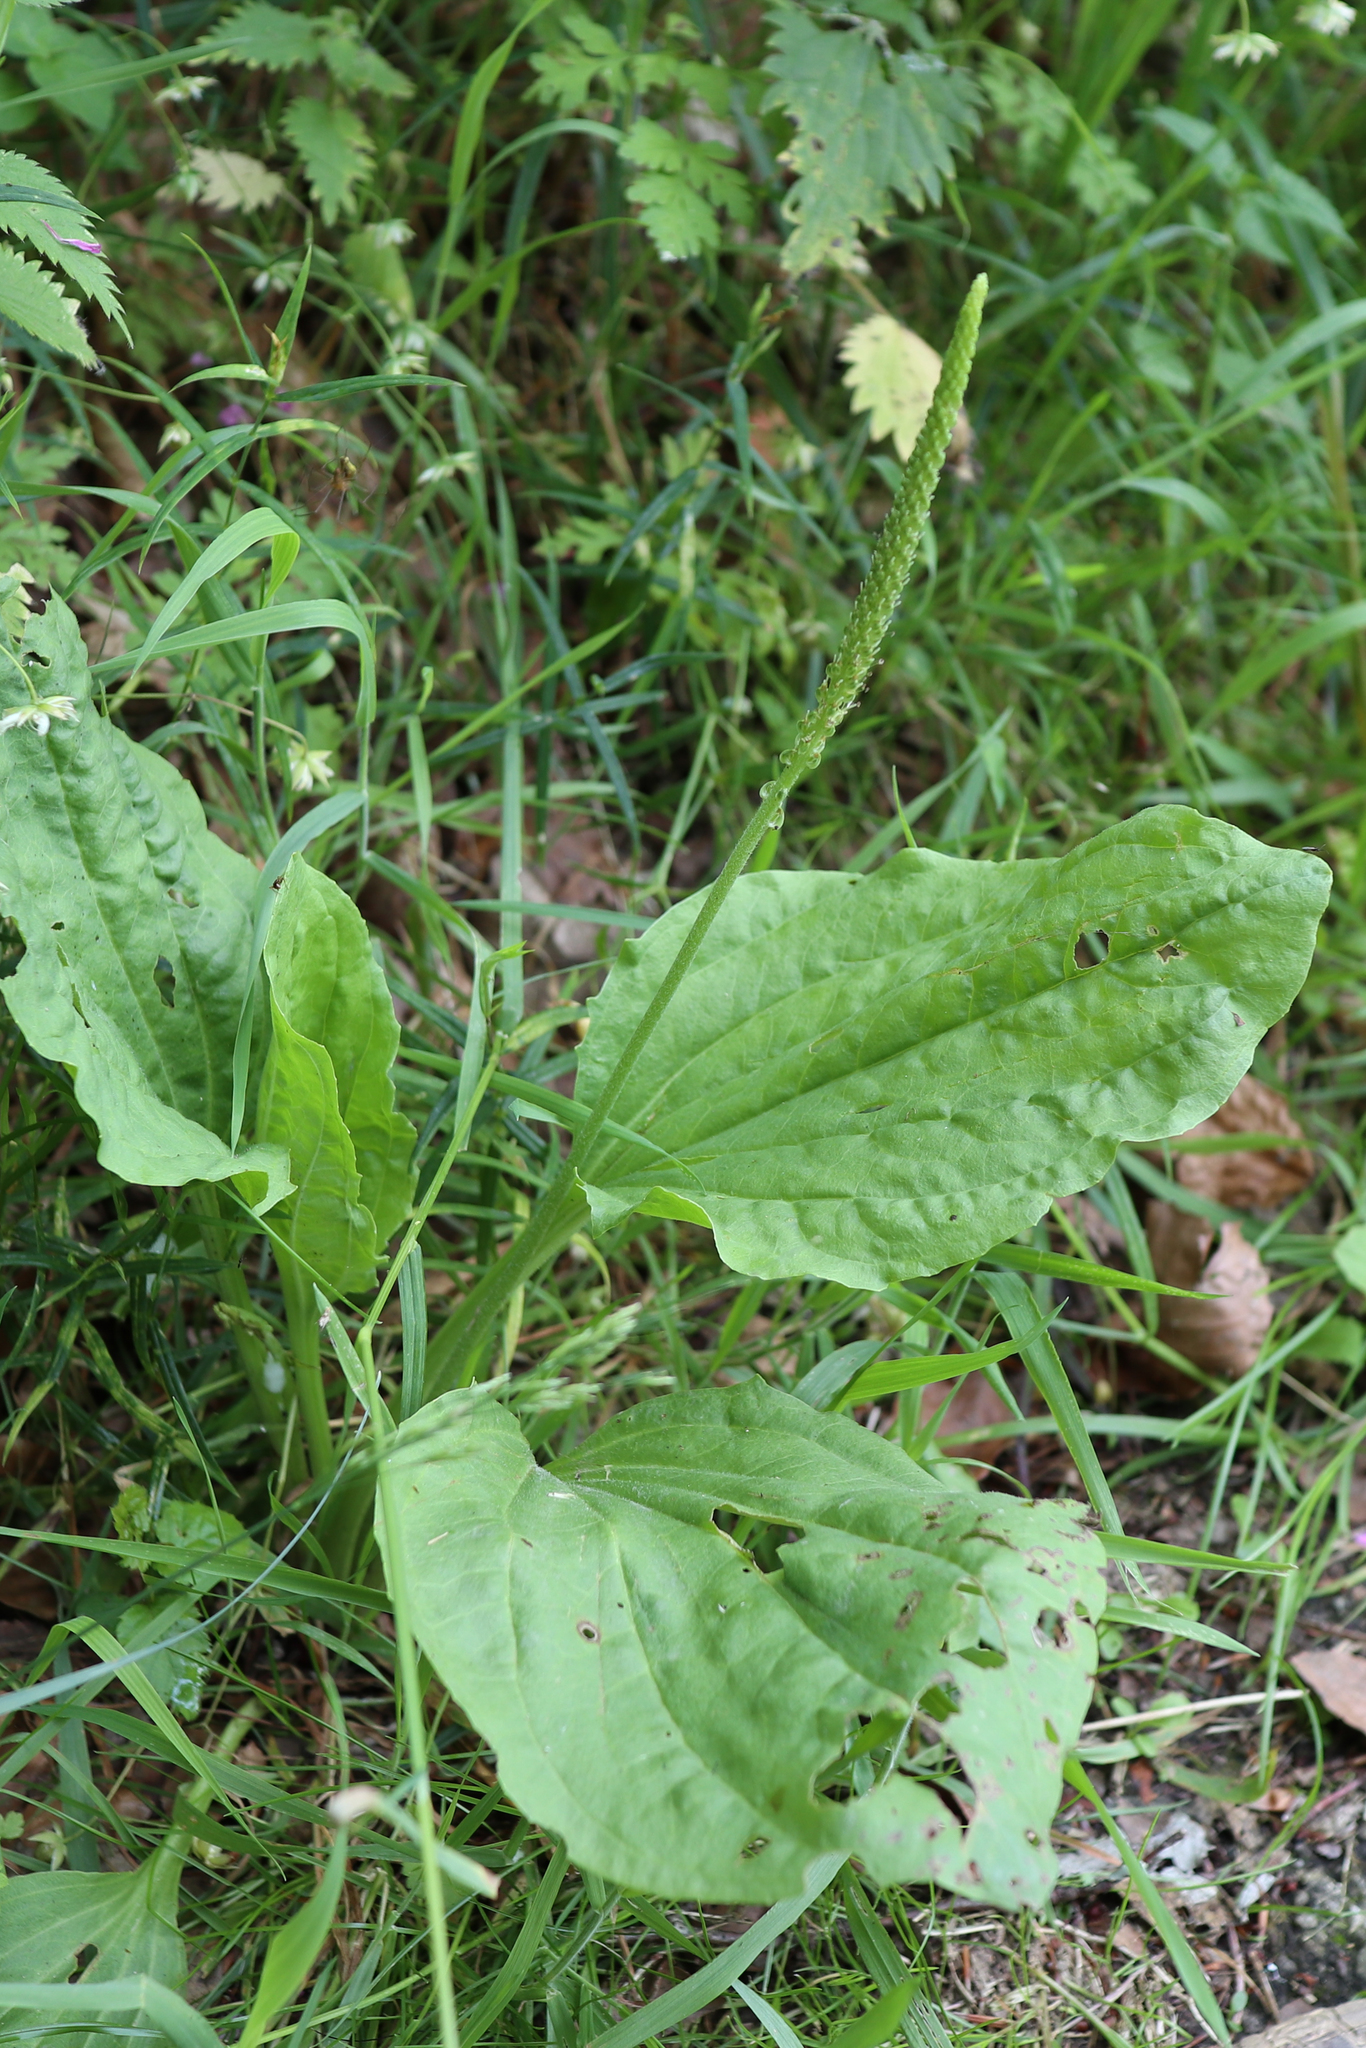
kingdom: Plantae
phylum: Tracheophyta
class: Magnoliopsida
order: Lamiales
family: Plantaginaceae
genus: Plantago
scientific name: Plantago major
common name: Common plantain
